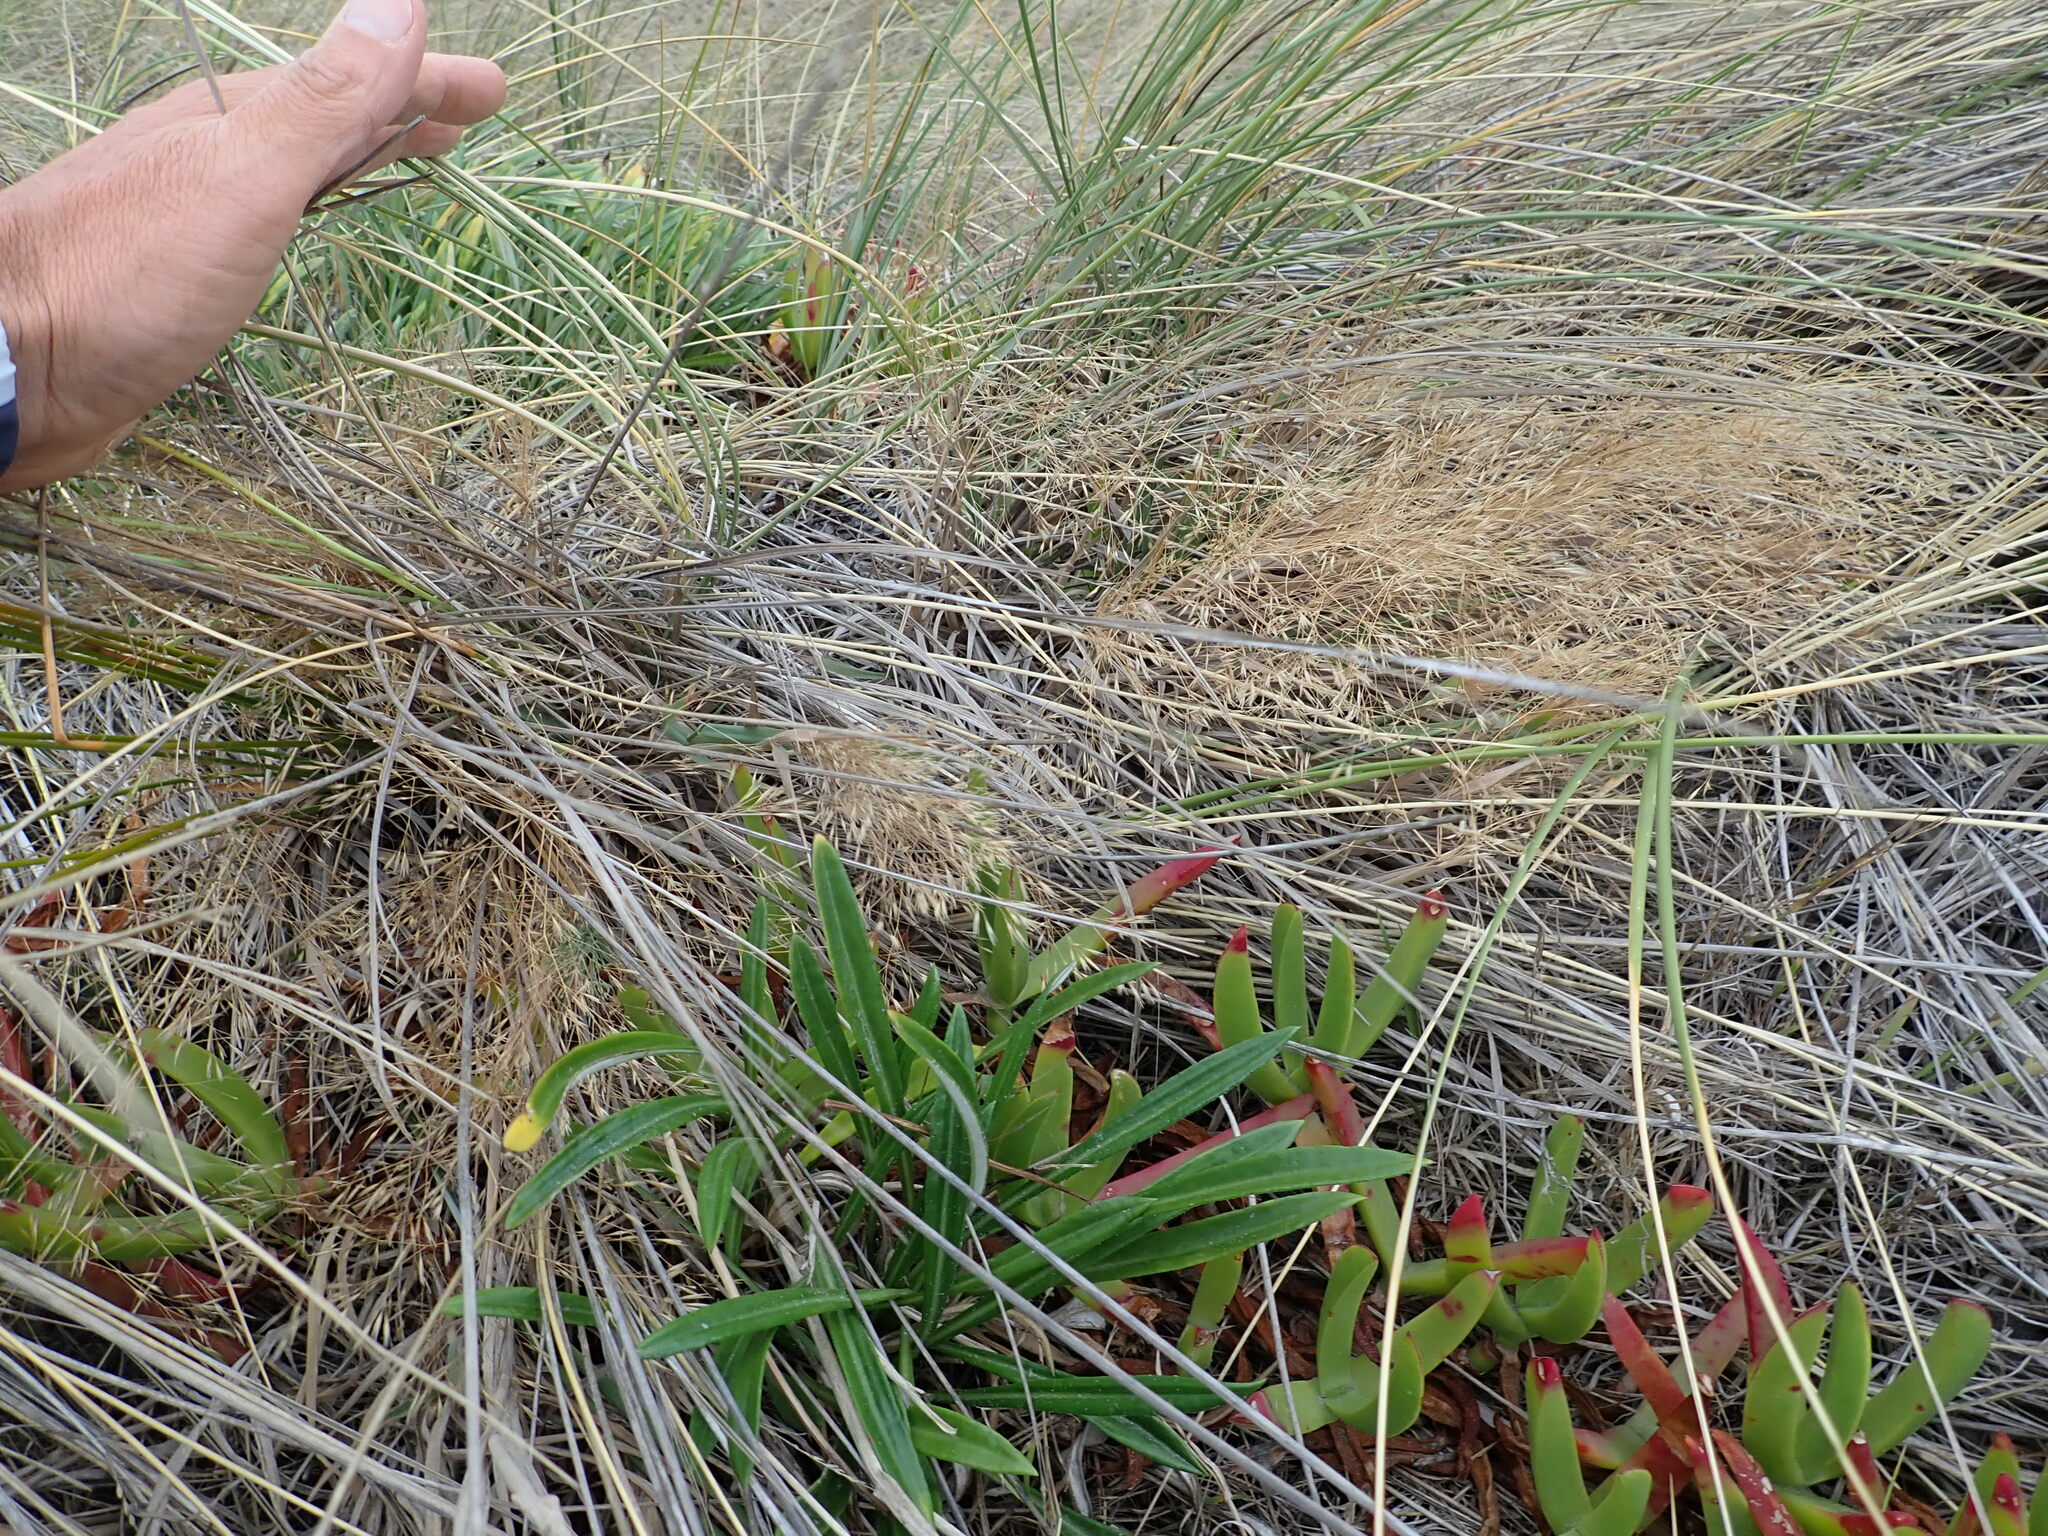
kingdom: Plantae
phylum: Tracheophyta
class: Liliopsida
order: Poales
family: Poaceae
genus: Lachnagrostis
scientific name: Lachnagrostis billardierei
